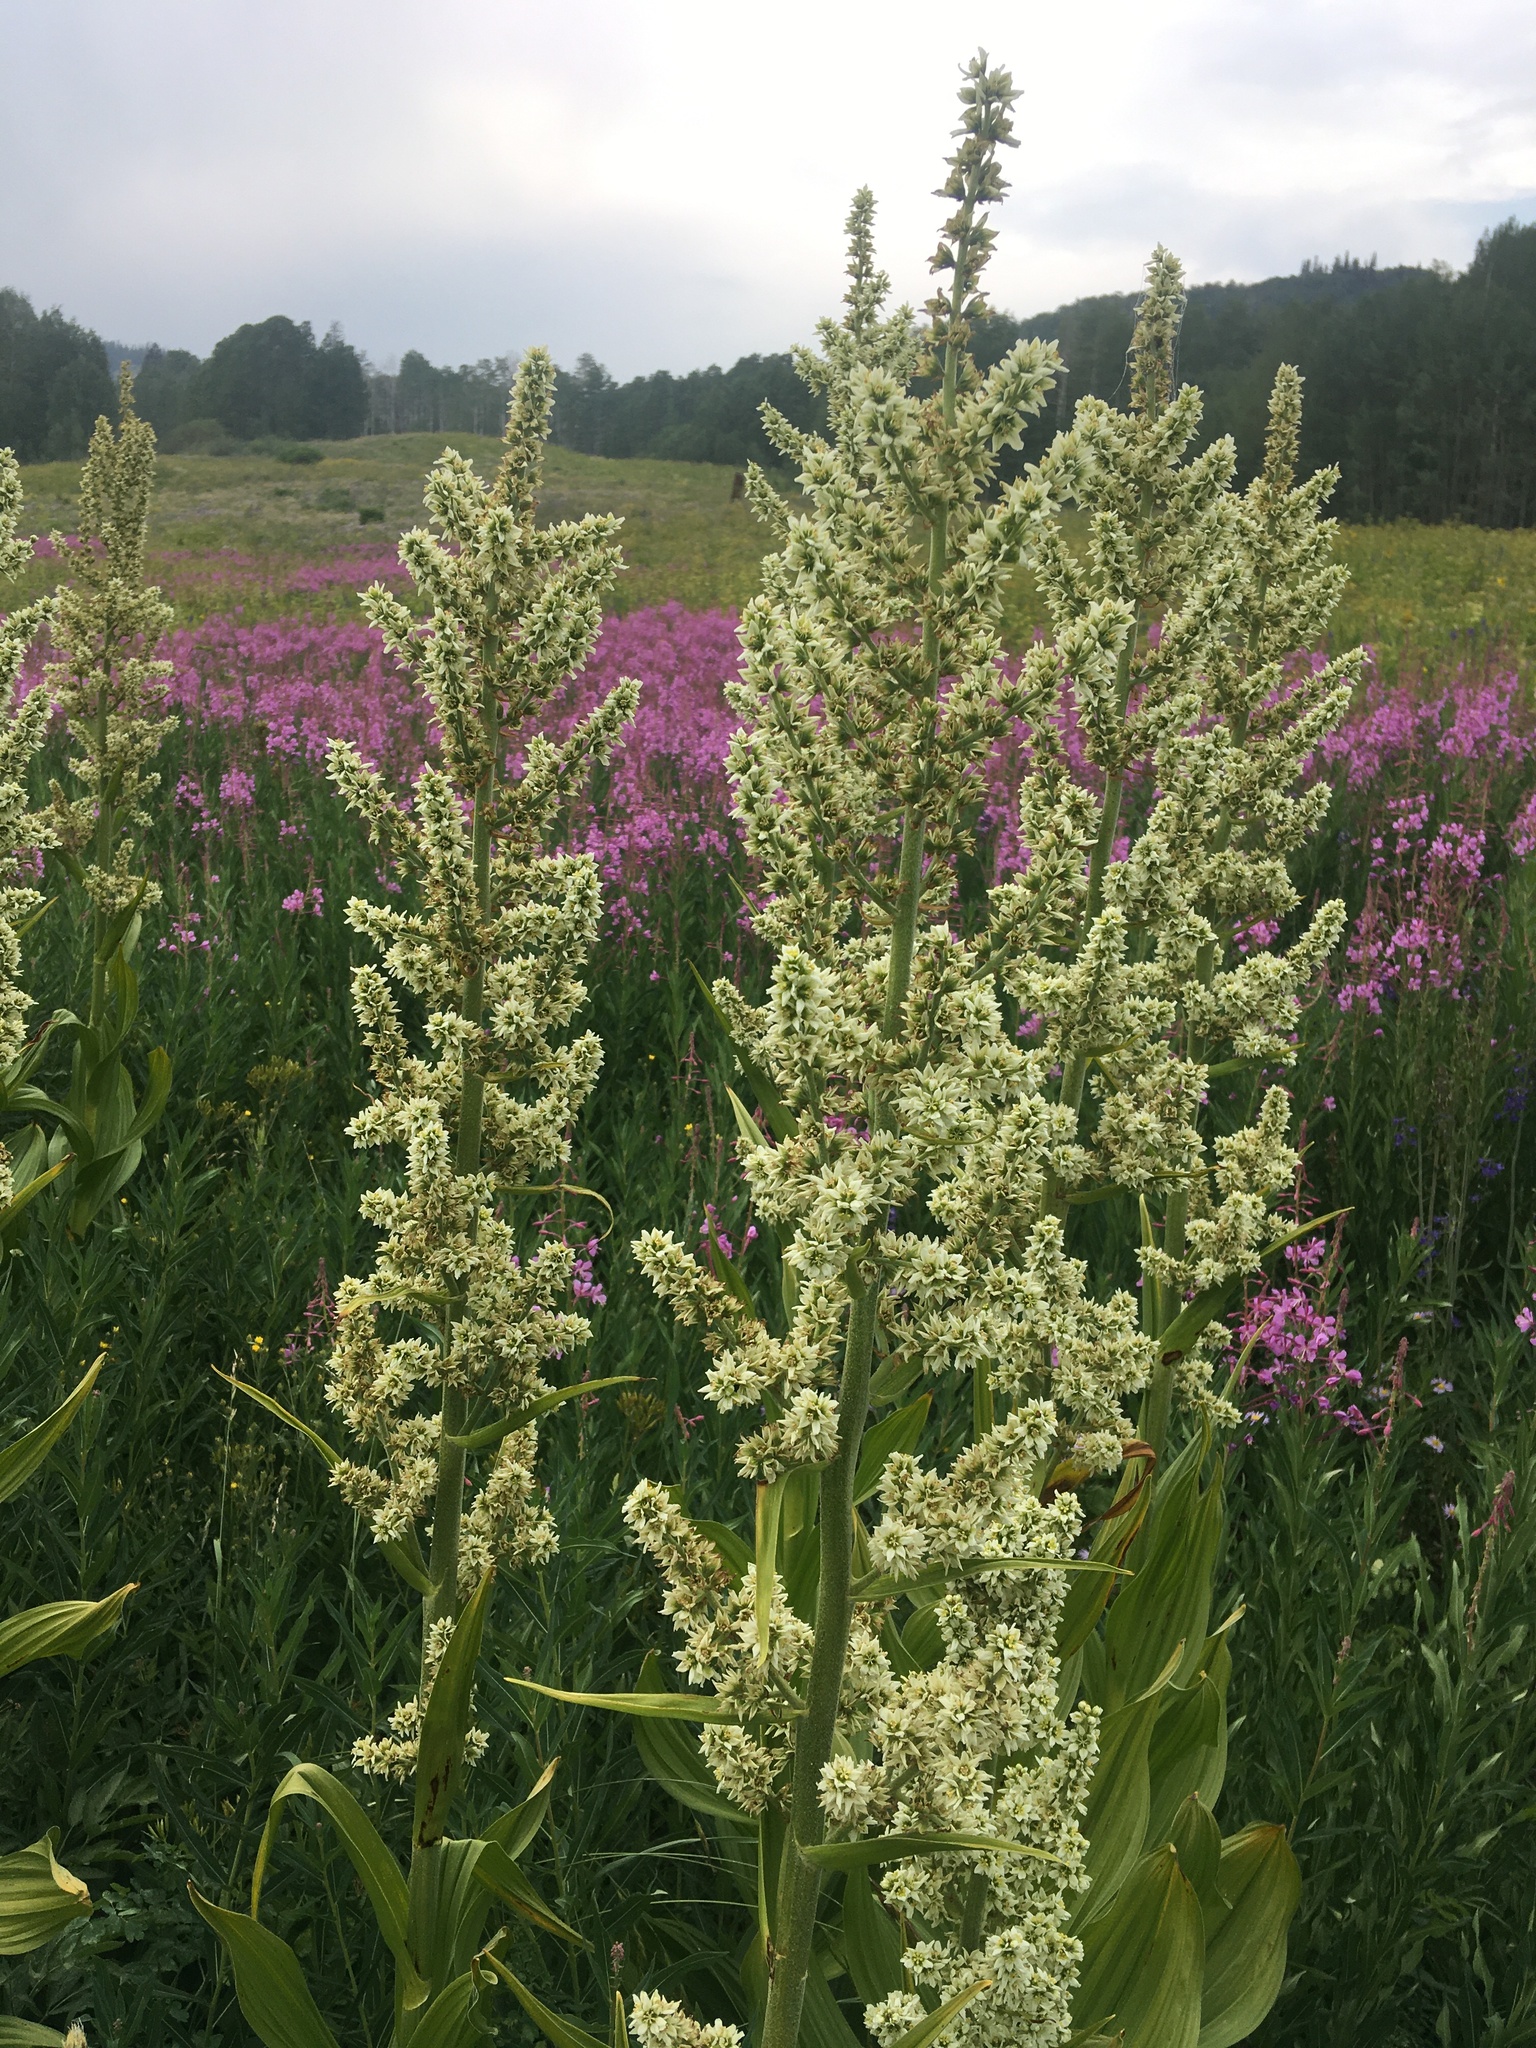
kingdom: Plantae
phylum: Tracheophyta
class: Liliopsida
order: Liliales
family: Melanthiaceae
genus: Veratrum
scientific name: Veratrum californicum
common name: California veratrum
